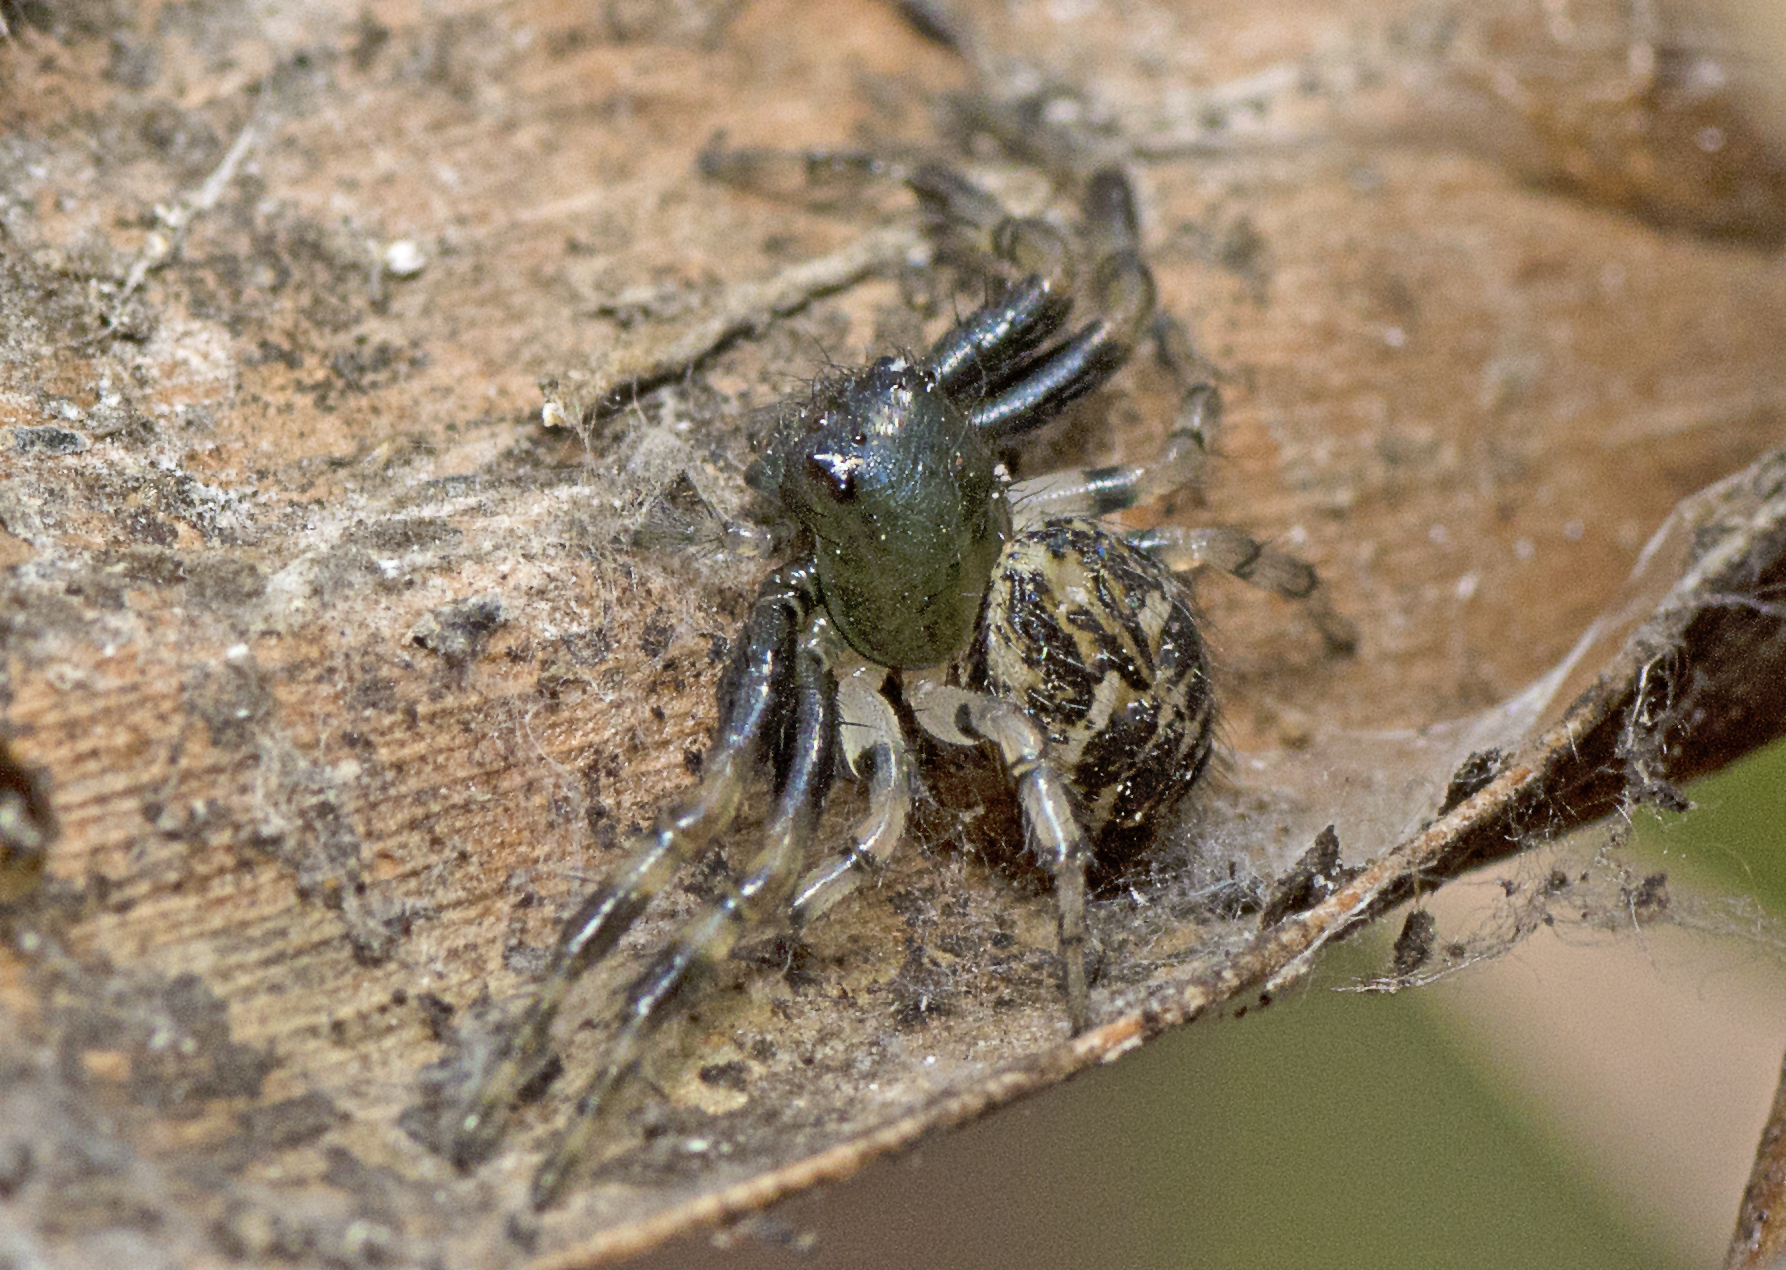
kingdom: Animalia
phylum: Arthropoda
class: Arachnida
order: Araneae
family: Thomisidae
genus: Xysticus
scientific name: Xysticus bimaculatus
